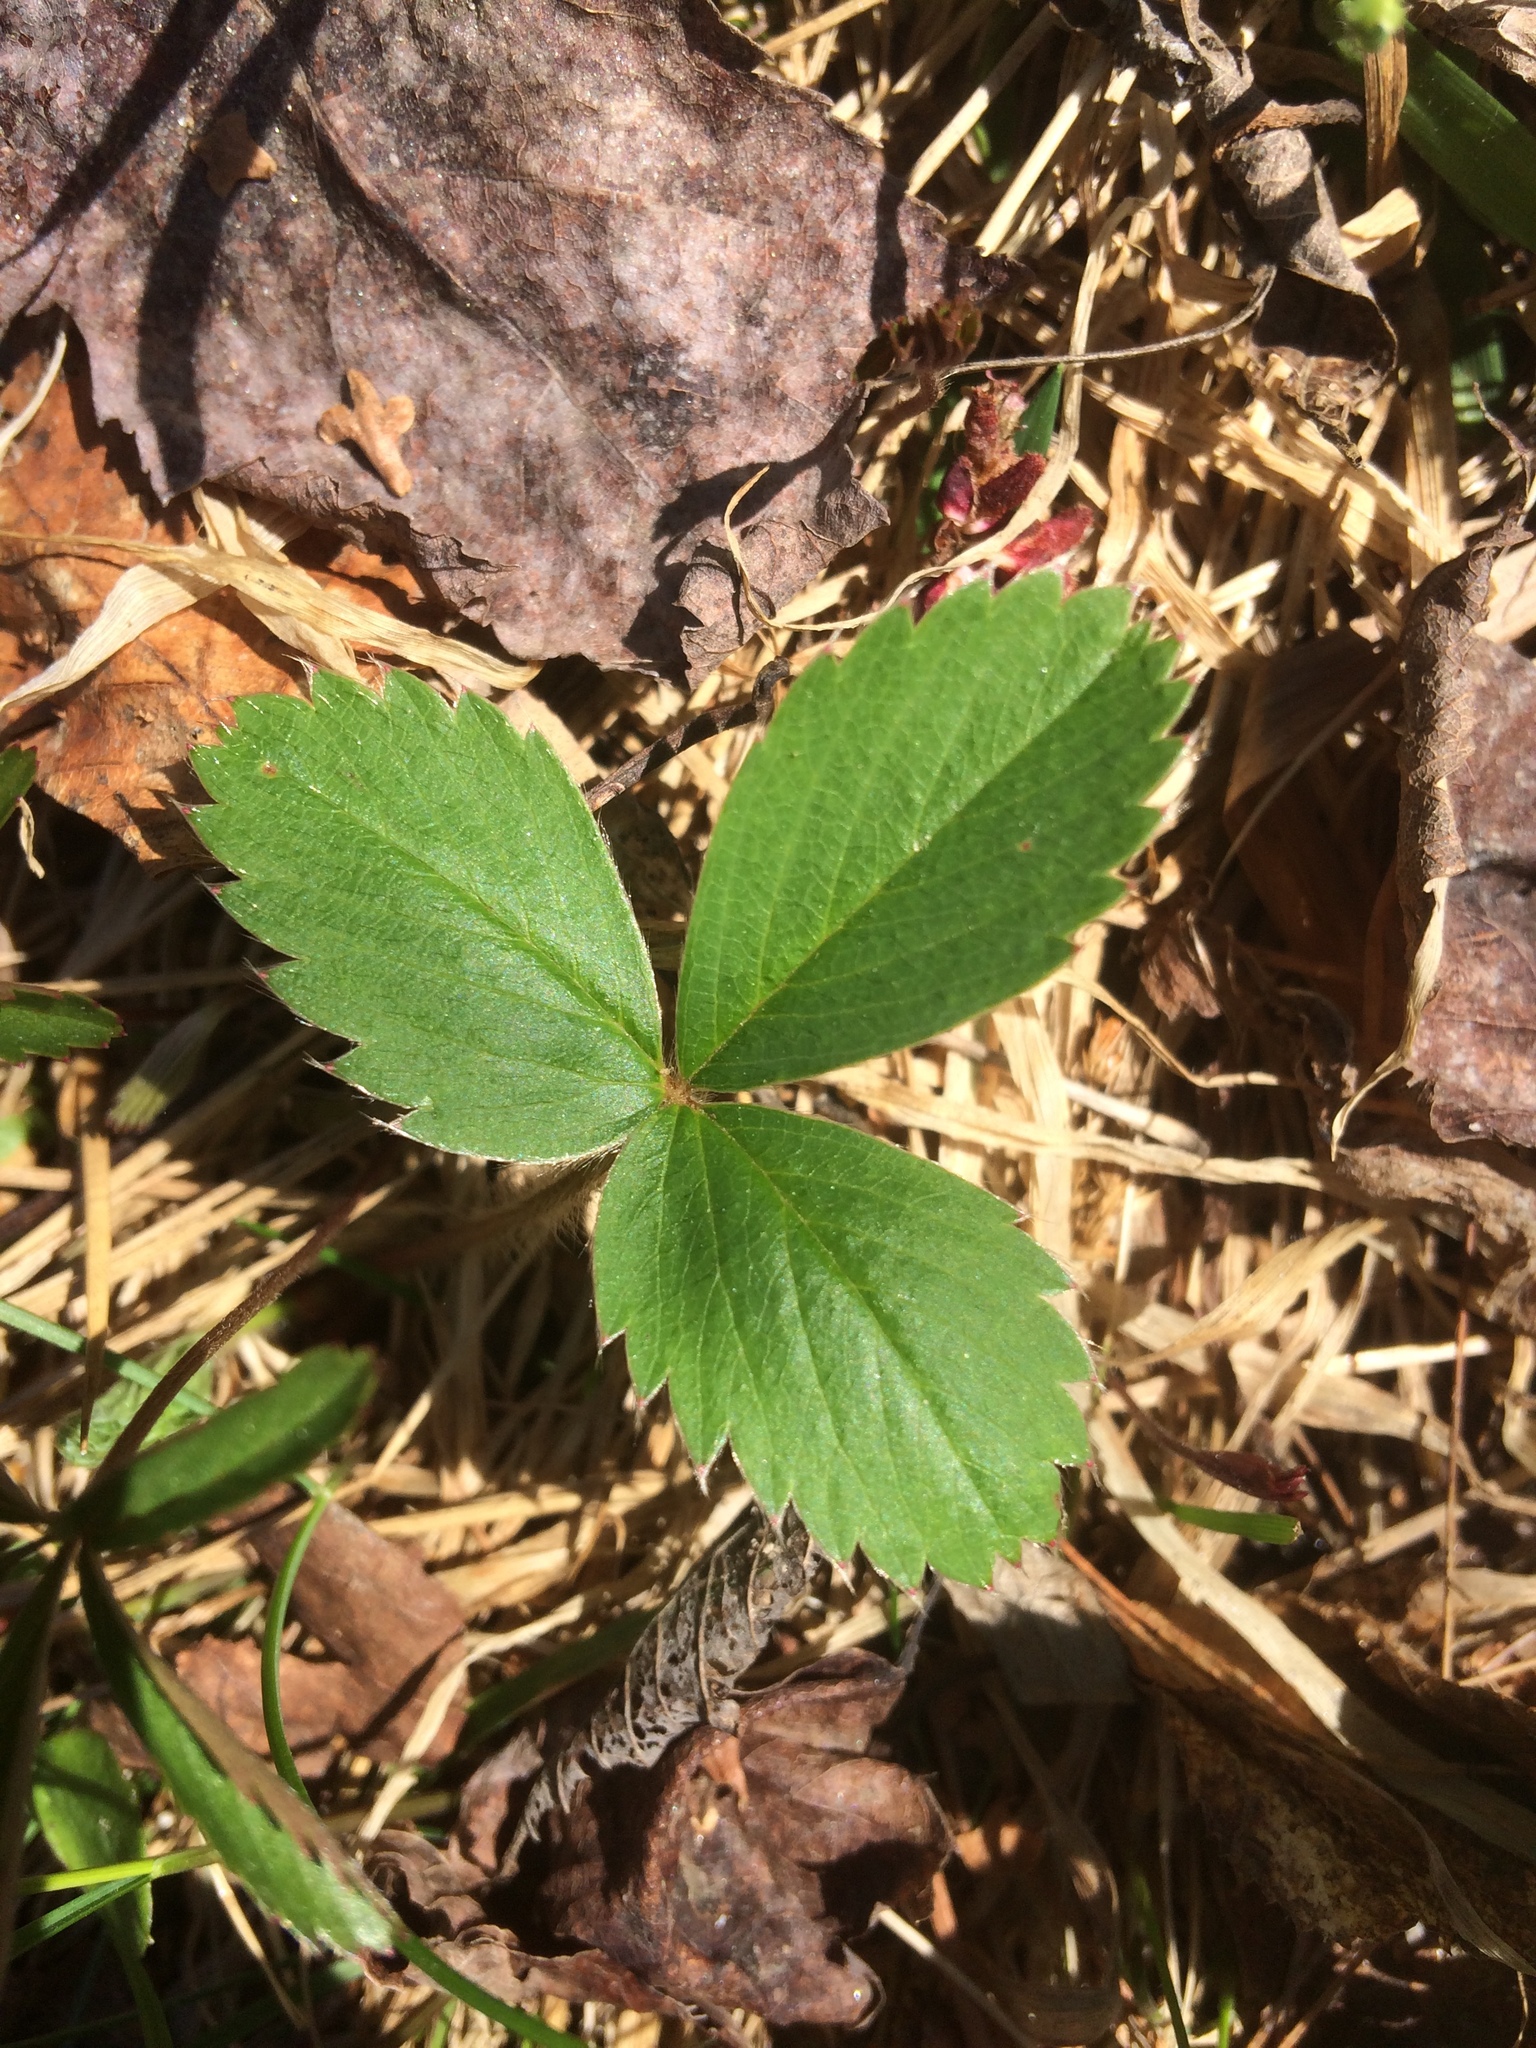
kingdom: Plantae
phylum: Tracheophyta
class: Magnoliopsida
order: Rosales
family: Rosaceae
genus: Fragaria
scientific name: Fragaria virginiana
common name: Thickleaved wild strawberry
